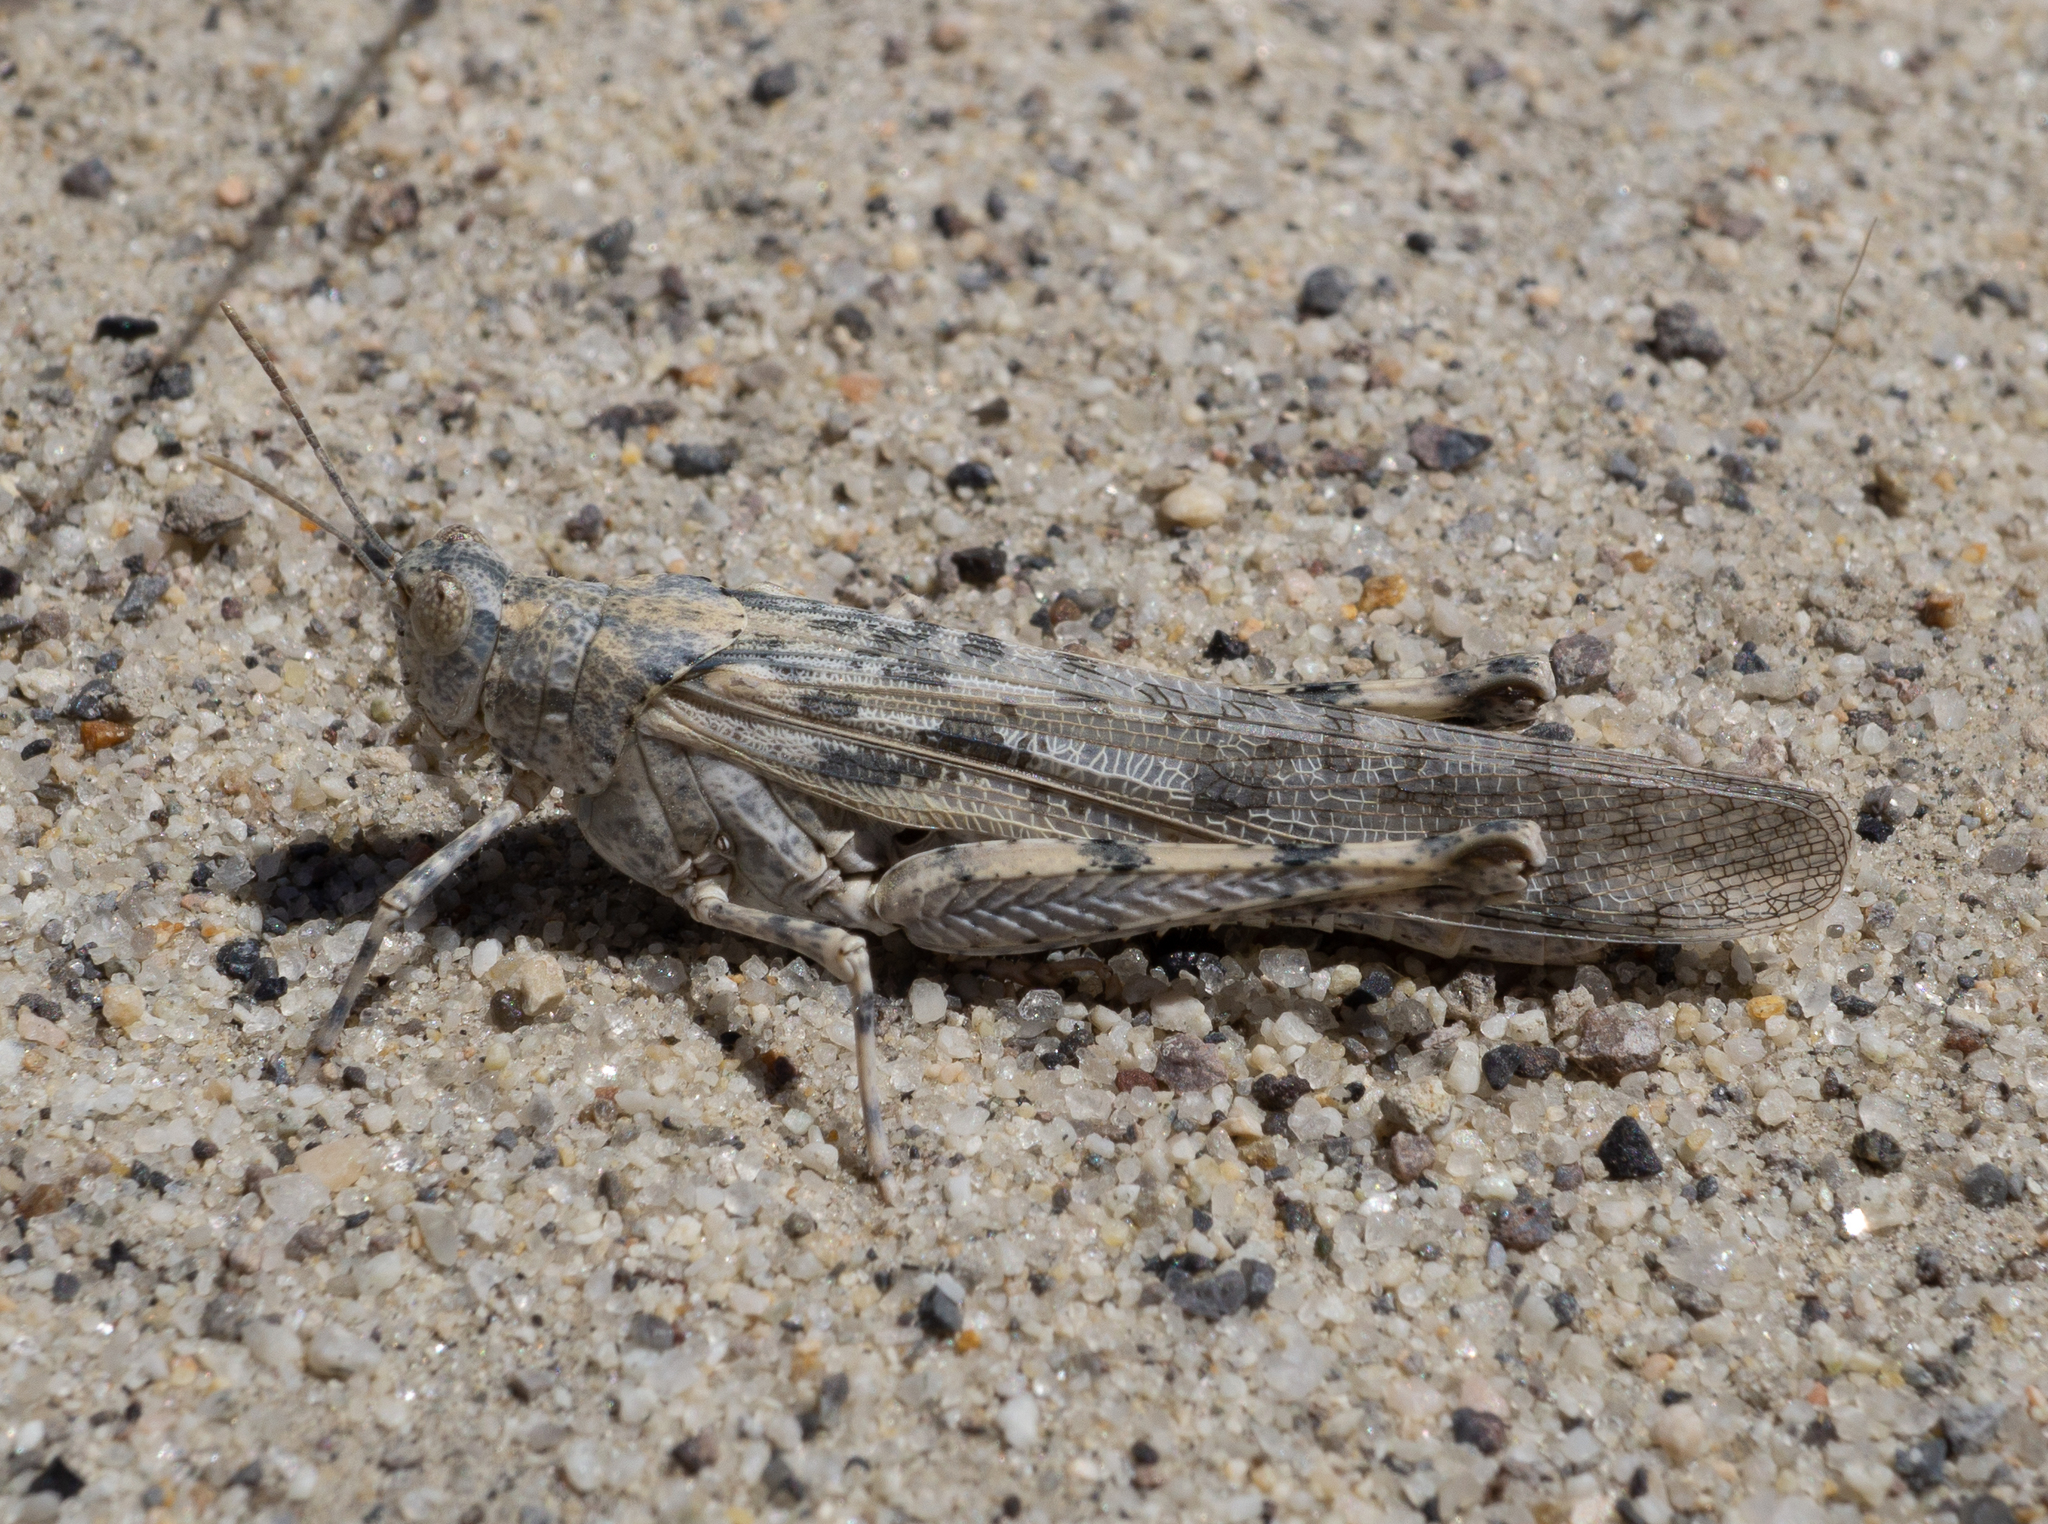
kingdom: Animalia
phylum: Arthropoda
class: Insecta
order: Orthoptera
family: Acrididae
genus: Anconia
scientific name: Anconia integra
